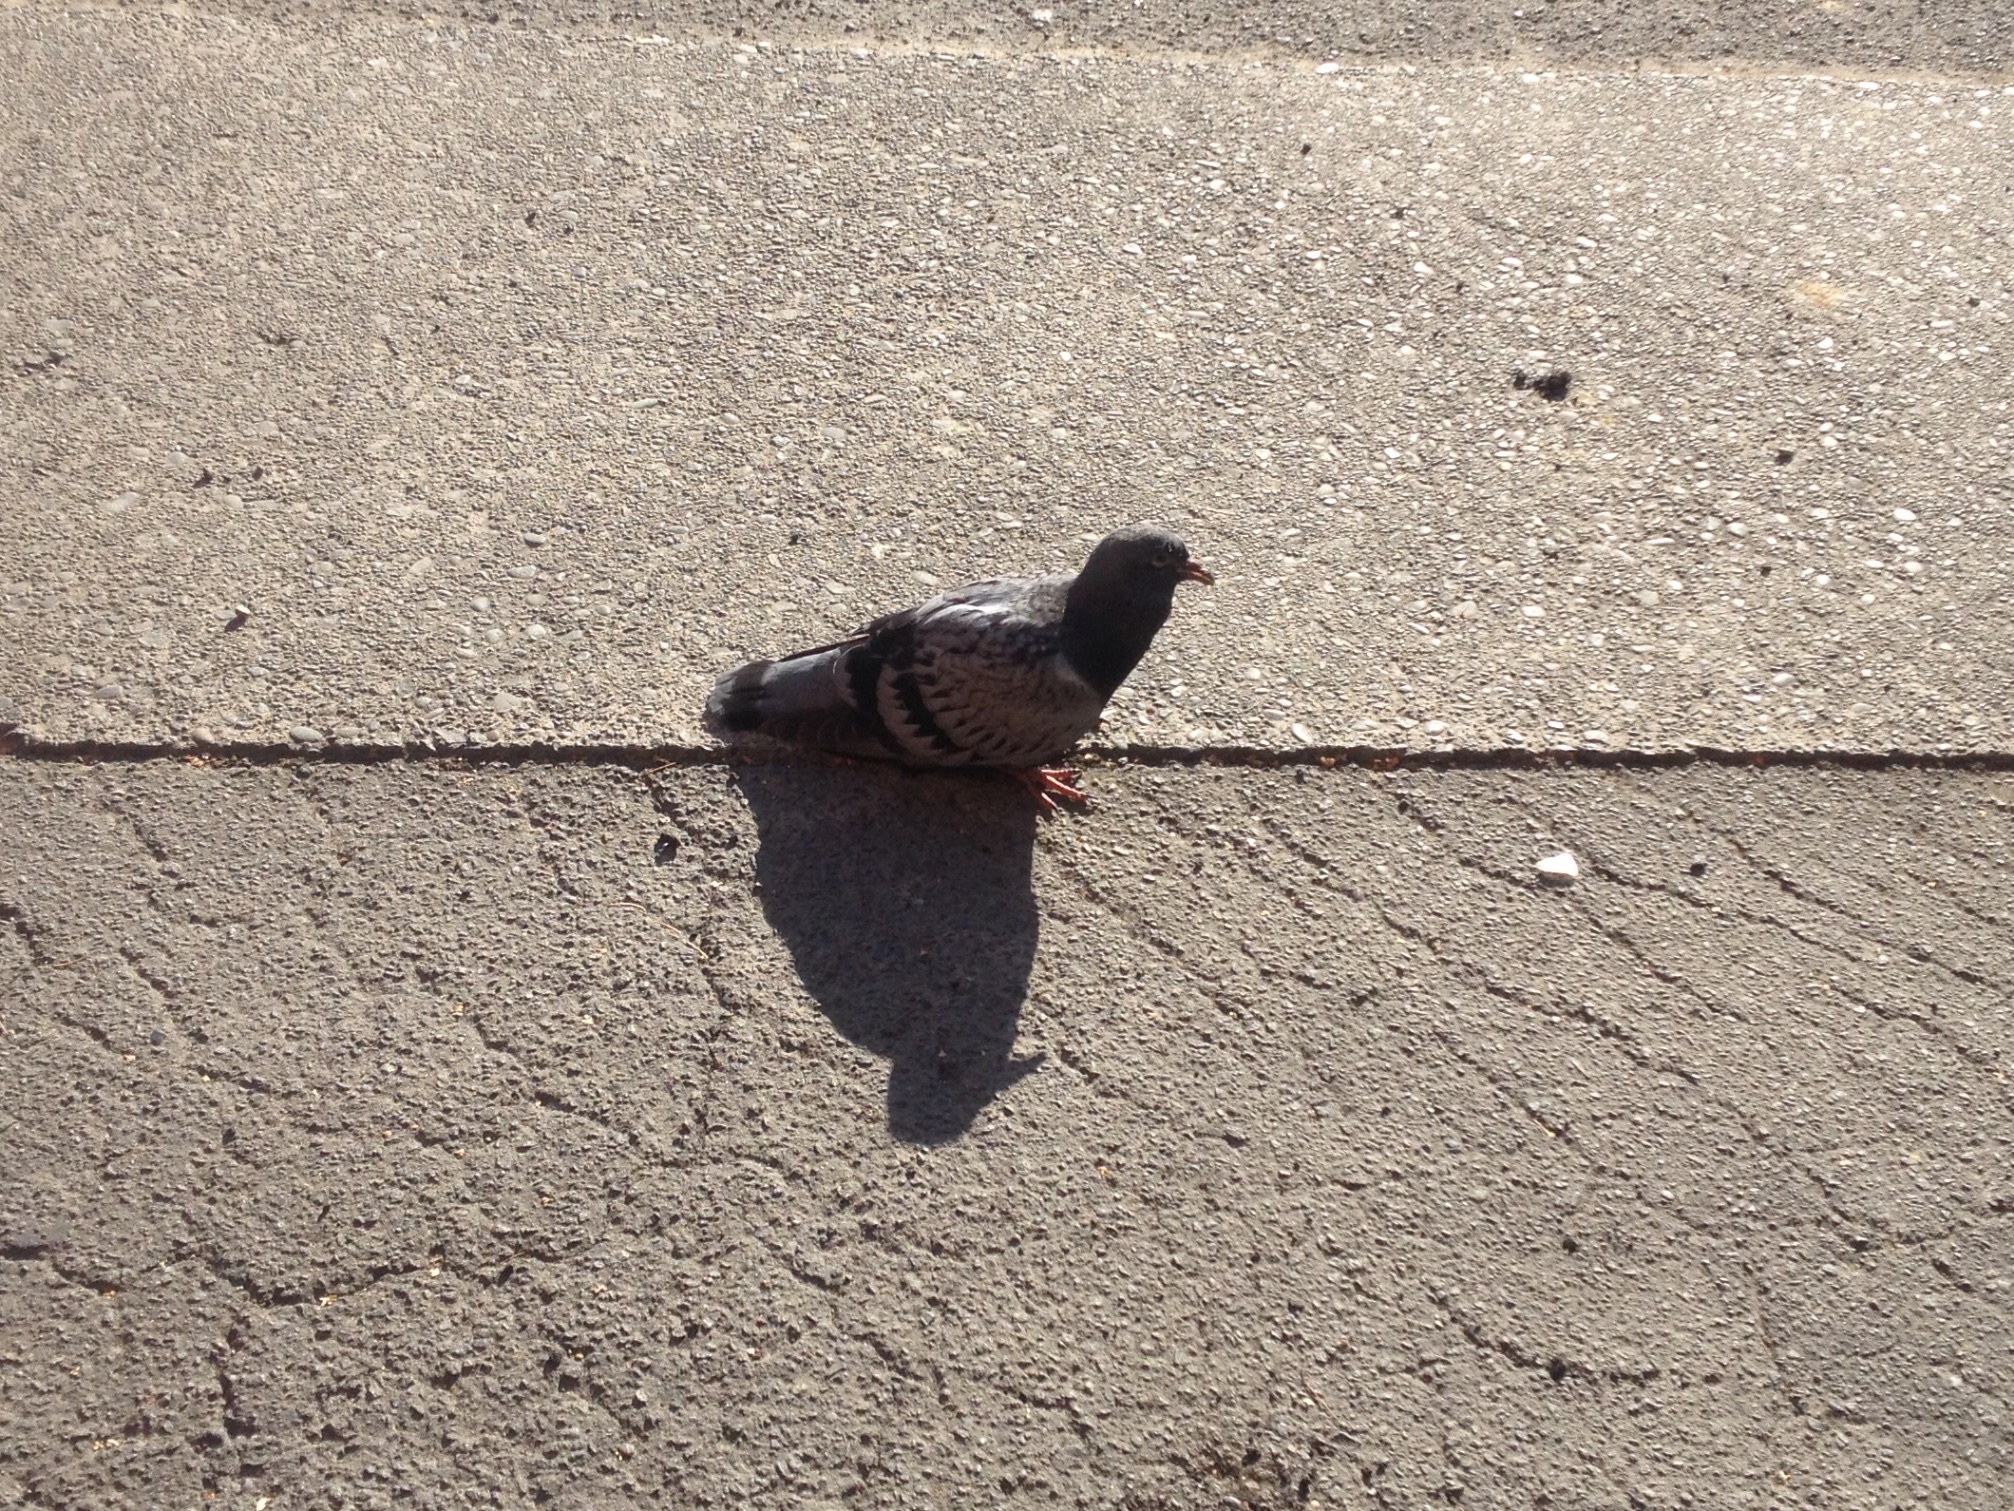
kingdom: Animalia
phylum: Chordata
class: Aves
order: Columbiformes
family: Columbidae
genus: Columba
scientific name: Columba livia
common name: Rock pigeon
